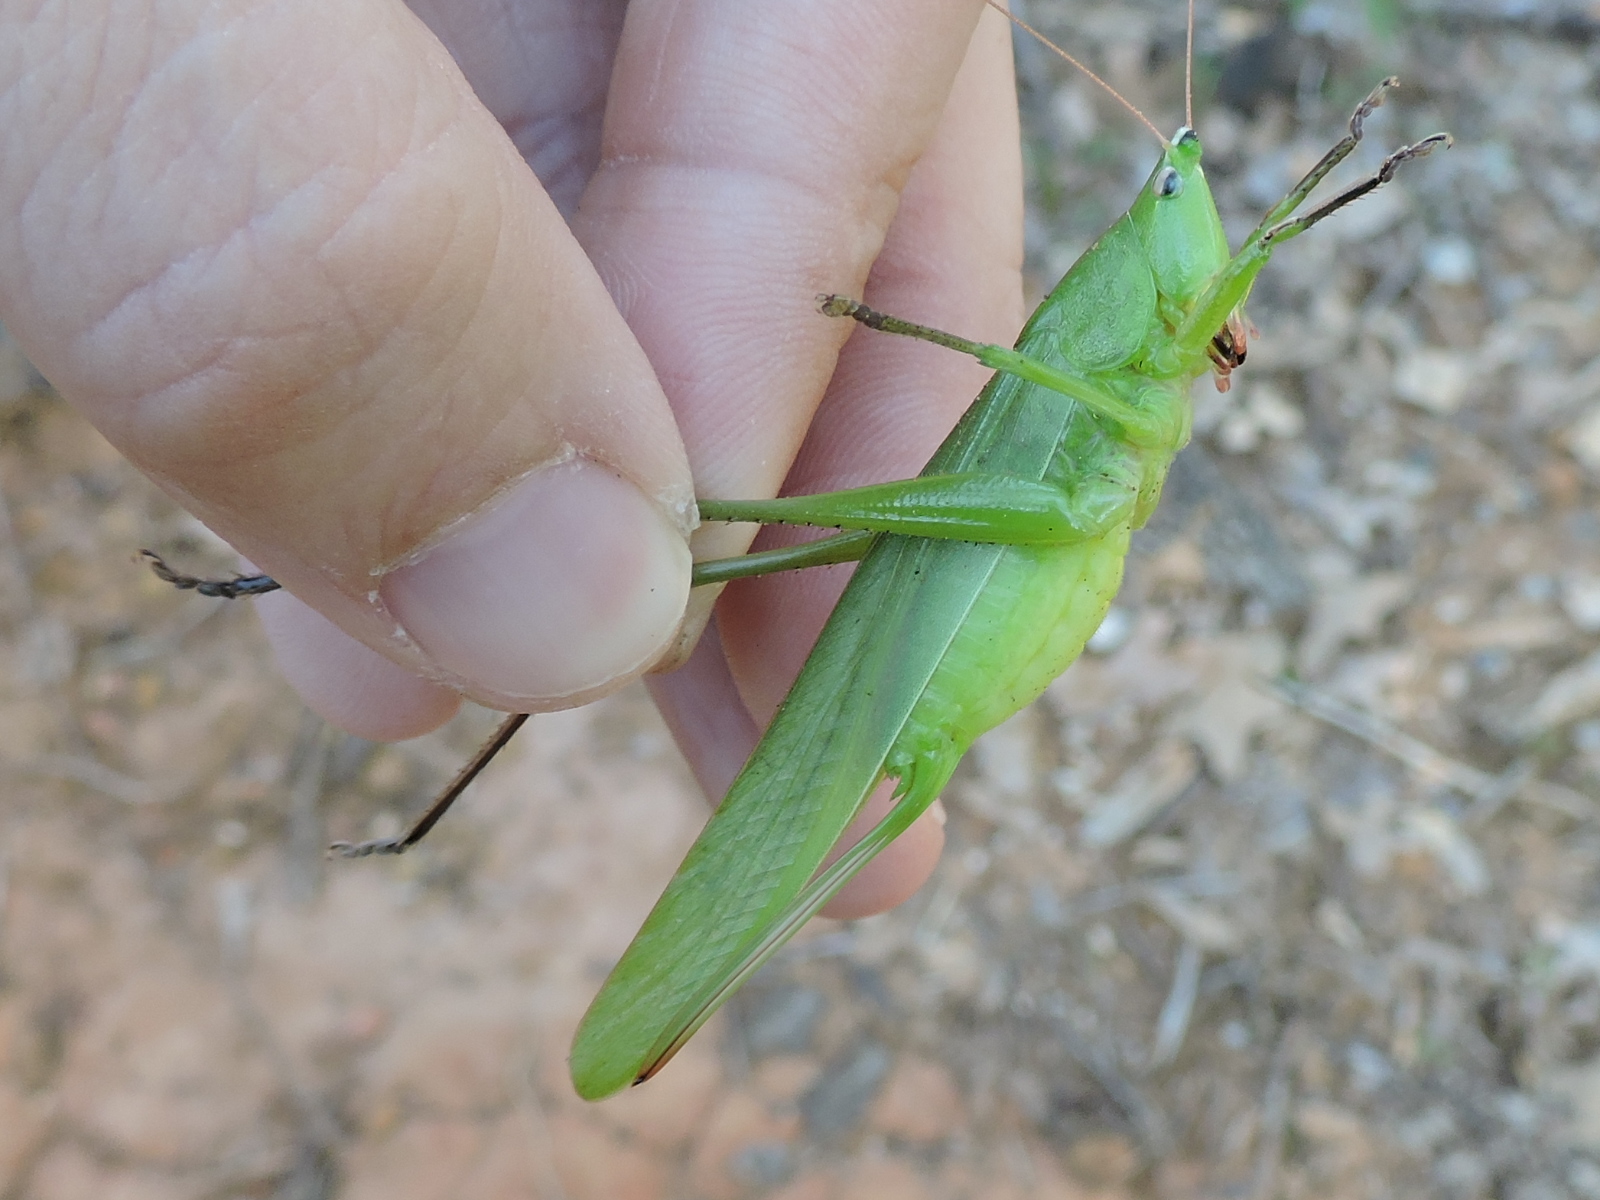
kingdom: Animalia
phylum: Arthropoda
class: Insecta
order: Orthoptera
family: Tettigoniidae
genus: Neoconocephalus
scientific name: Neoconocephalus triops
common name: Broad-tipped conehead
